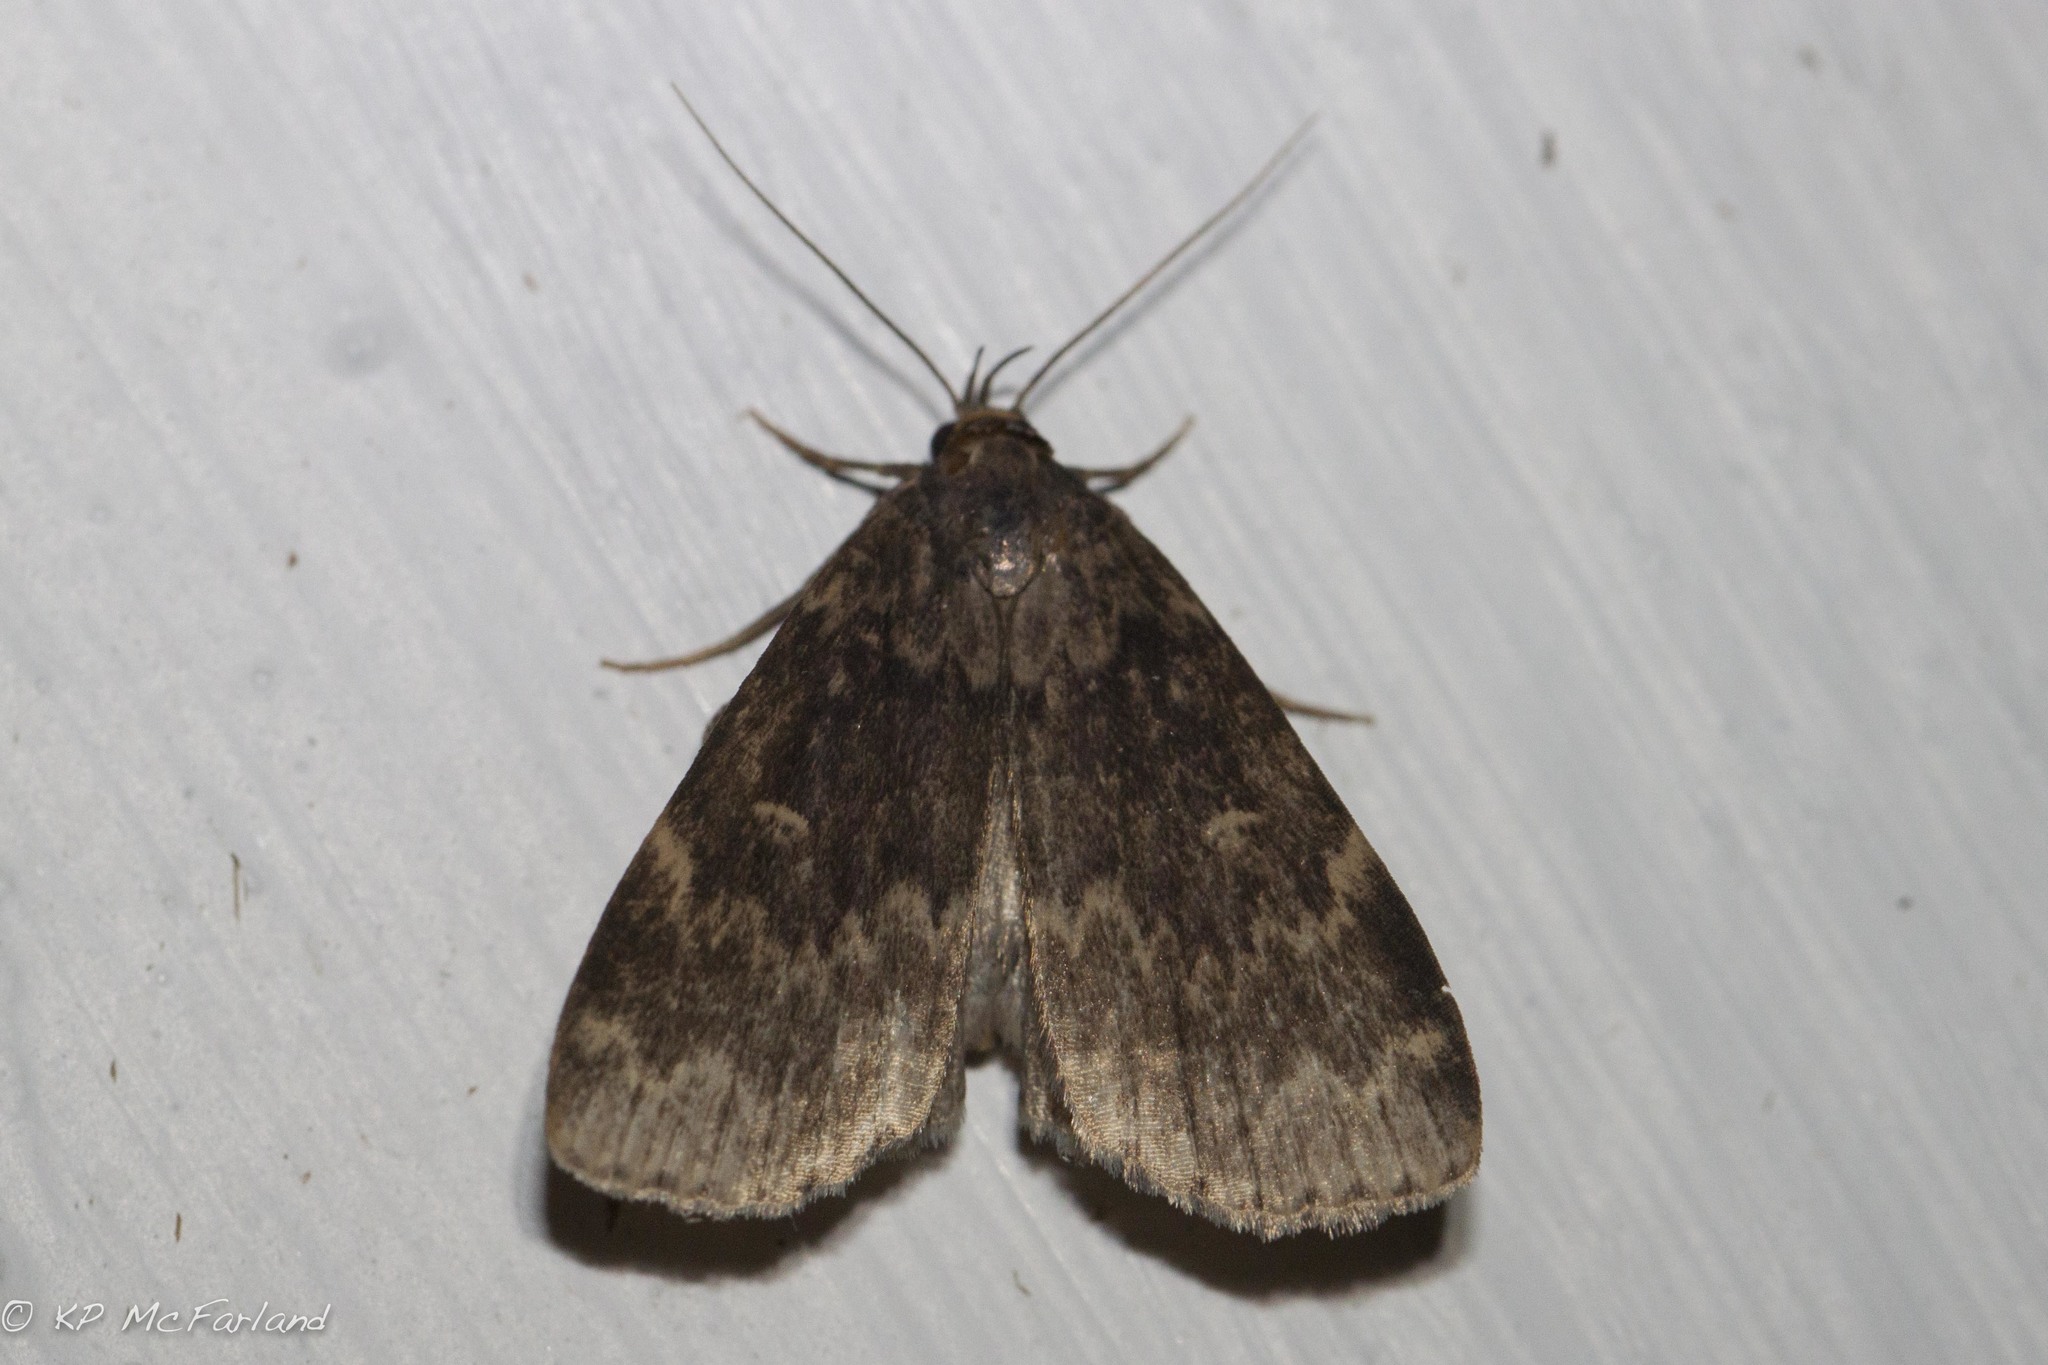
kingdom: Animalia
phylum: Arthropoda
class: Insecta
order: Lepidoptera
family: Erebidae
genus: Idia
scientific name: Idia lubricalis
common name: Twin-striped tabby
